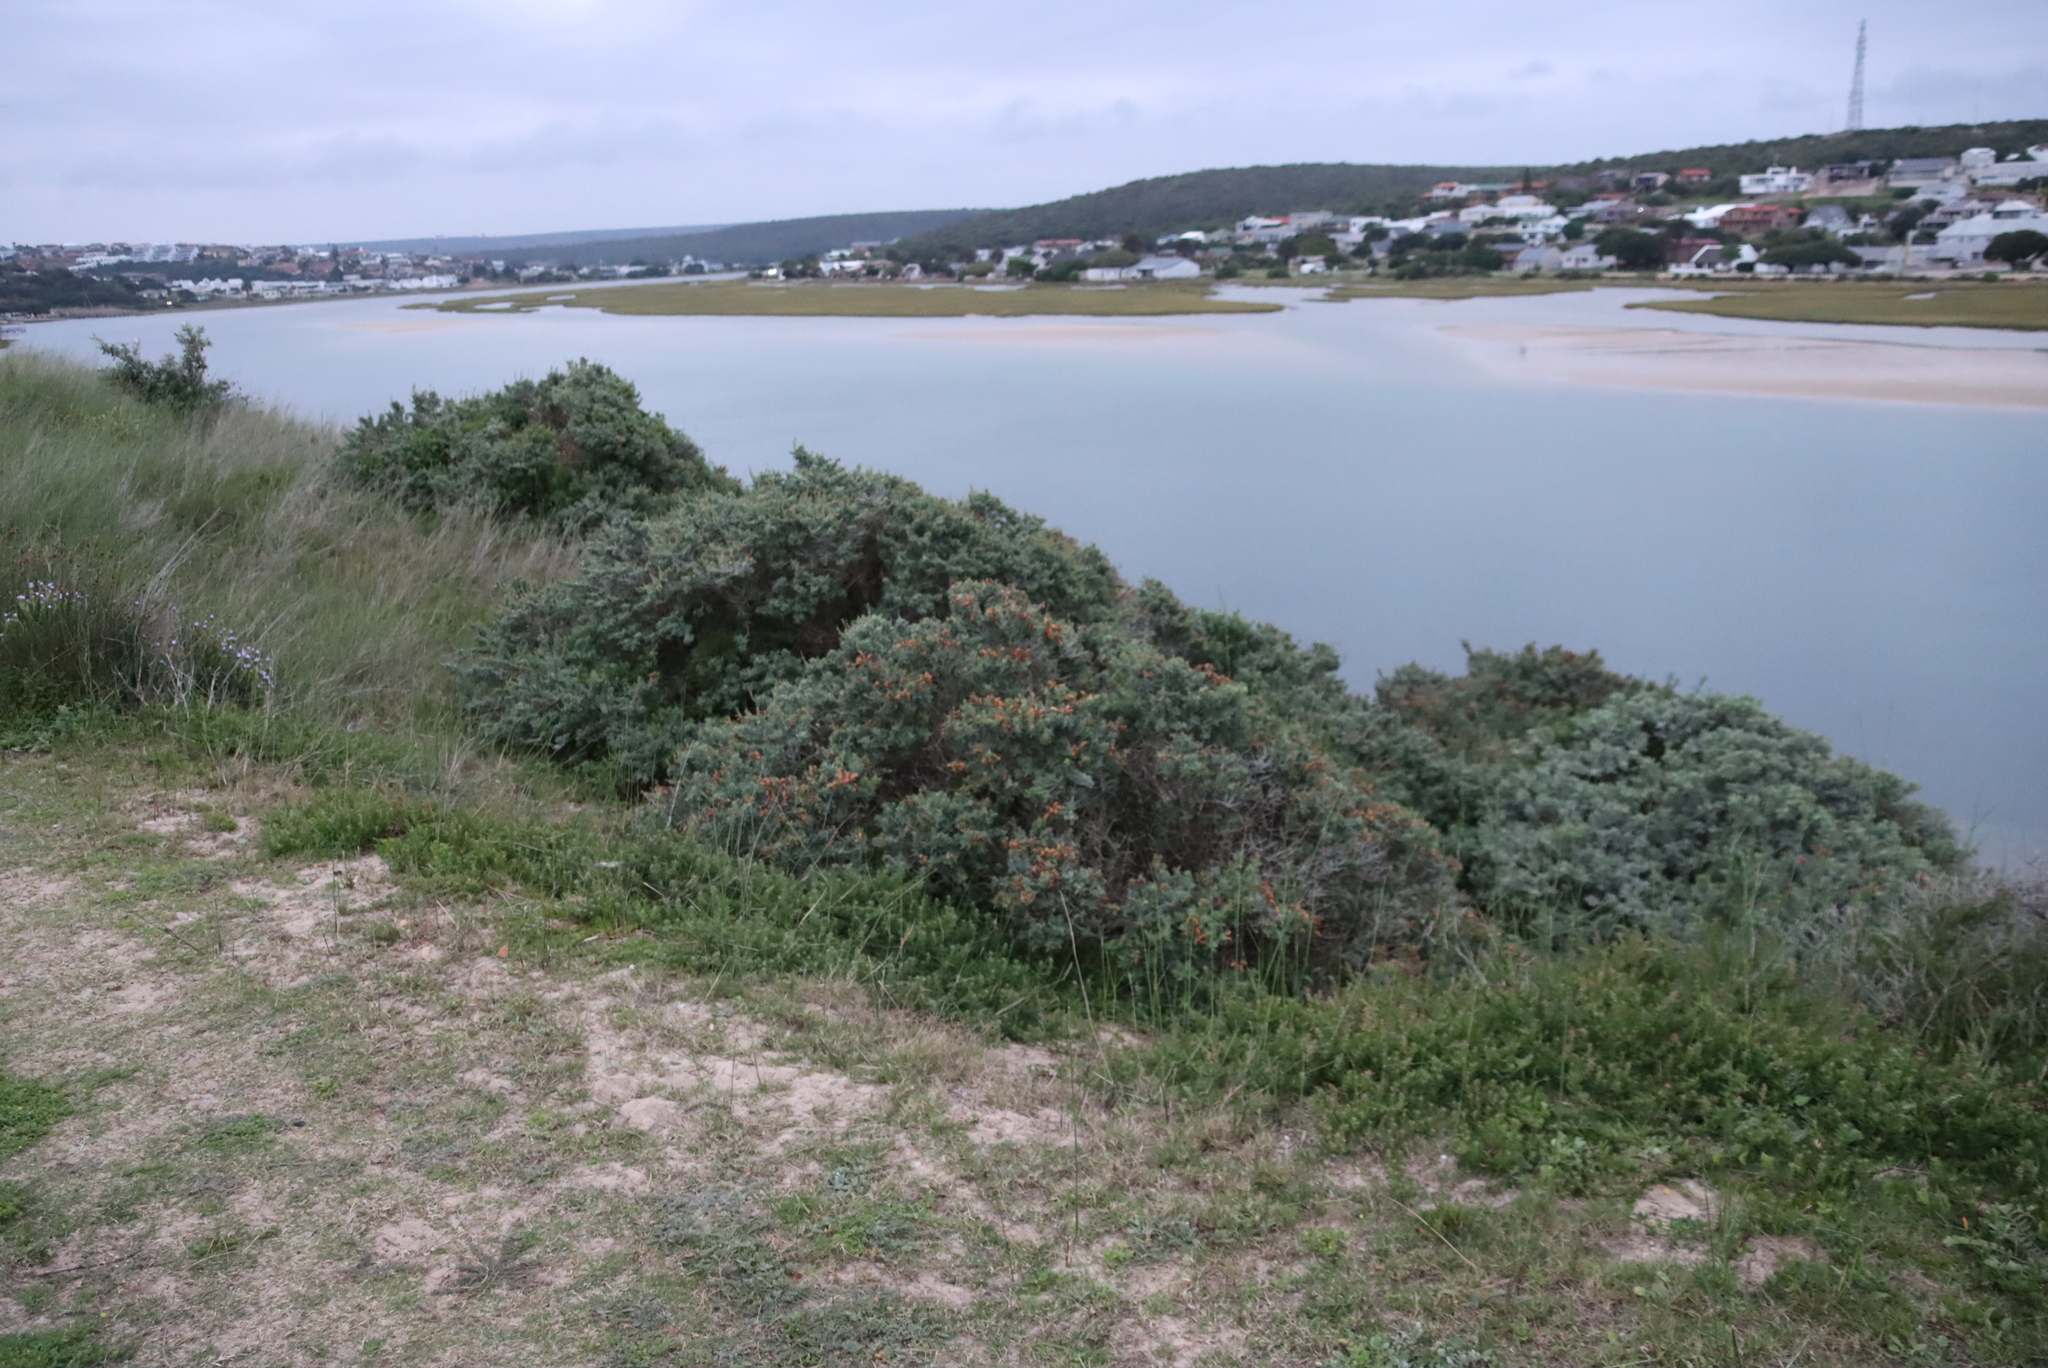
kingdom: Plantae
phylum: Tracheophyta
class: Magnoliopsida
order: Lamiales
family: Lamiaceae
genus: Salvia
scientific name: Salvia aurea
